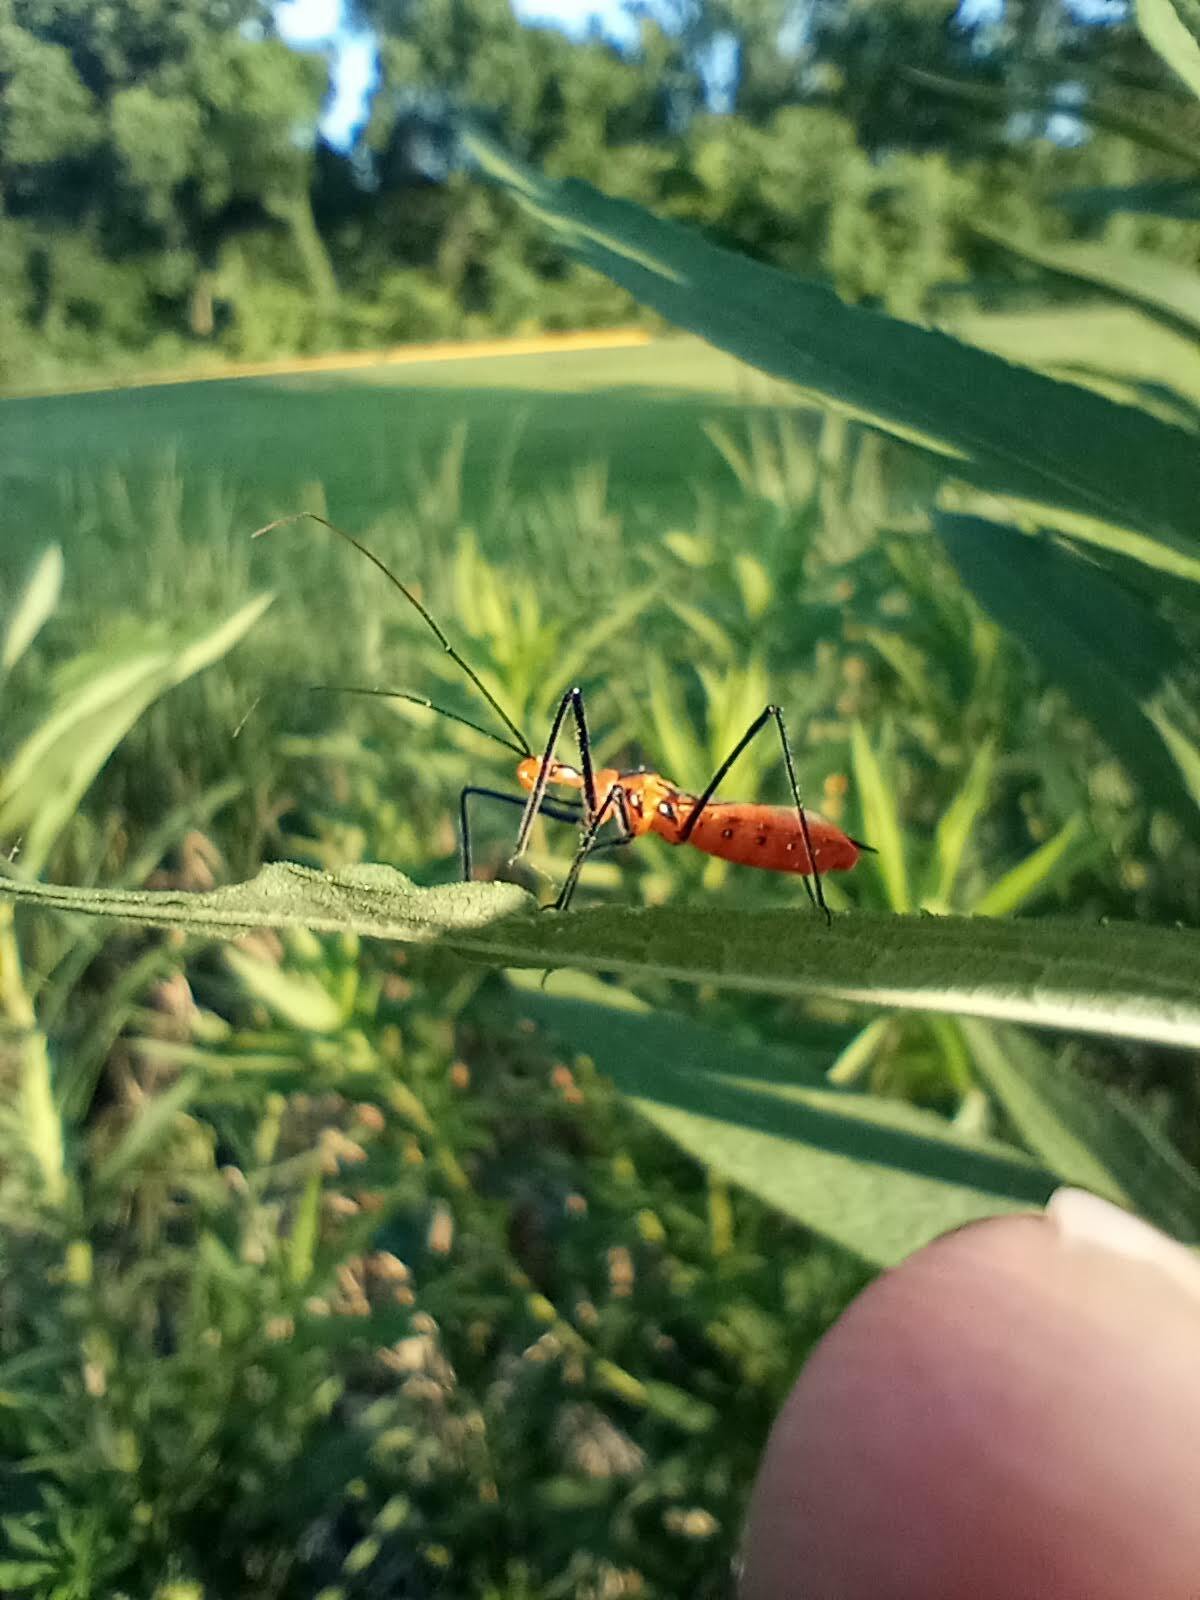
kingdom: Animalia
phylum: Arthropoda
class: Insecta
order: Hemiptera
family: Reduviidae
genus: Zelus
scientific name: Zelus longipes
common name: Milkweed assassin bug
